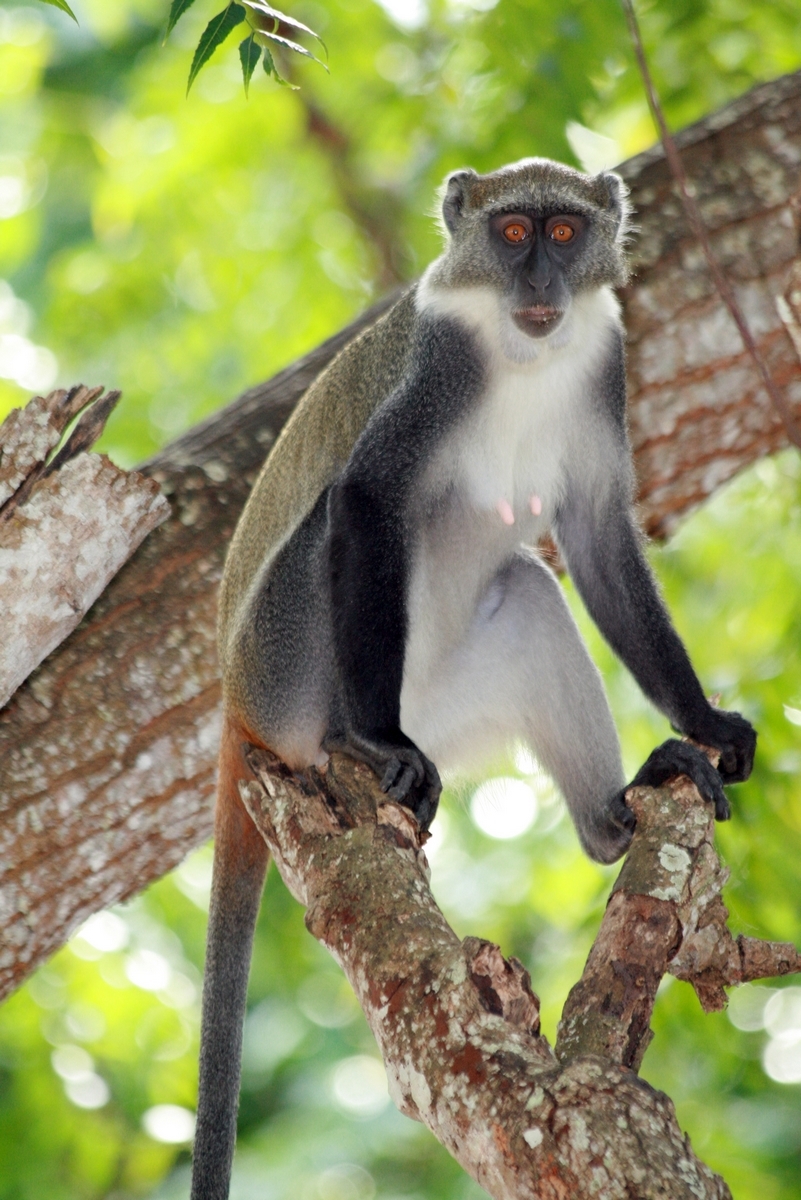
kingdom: Animalia
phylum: Chordata
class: Mammalia
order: Primates
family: Cercopithecidae
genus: Cercopithecus
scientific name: Cercopithecus mitis
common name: Blue monkey
